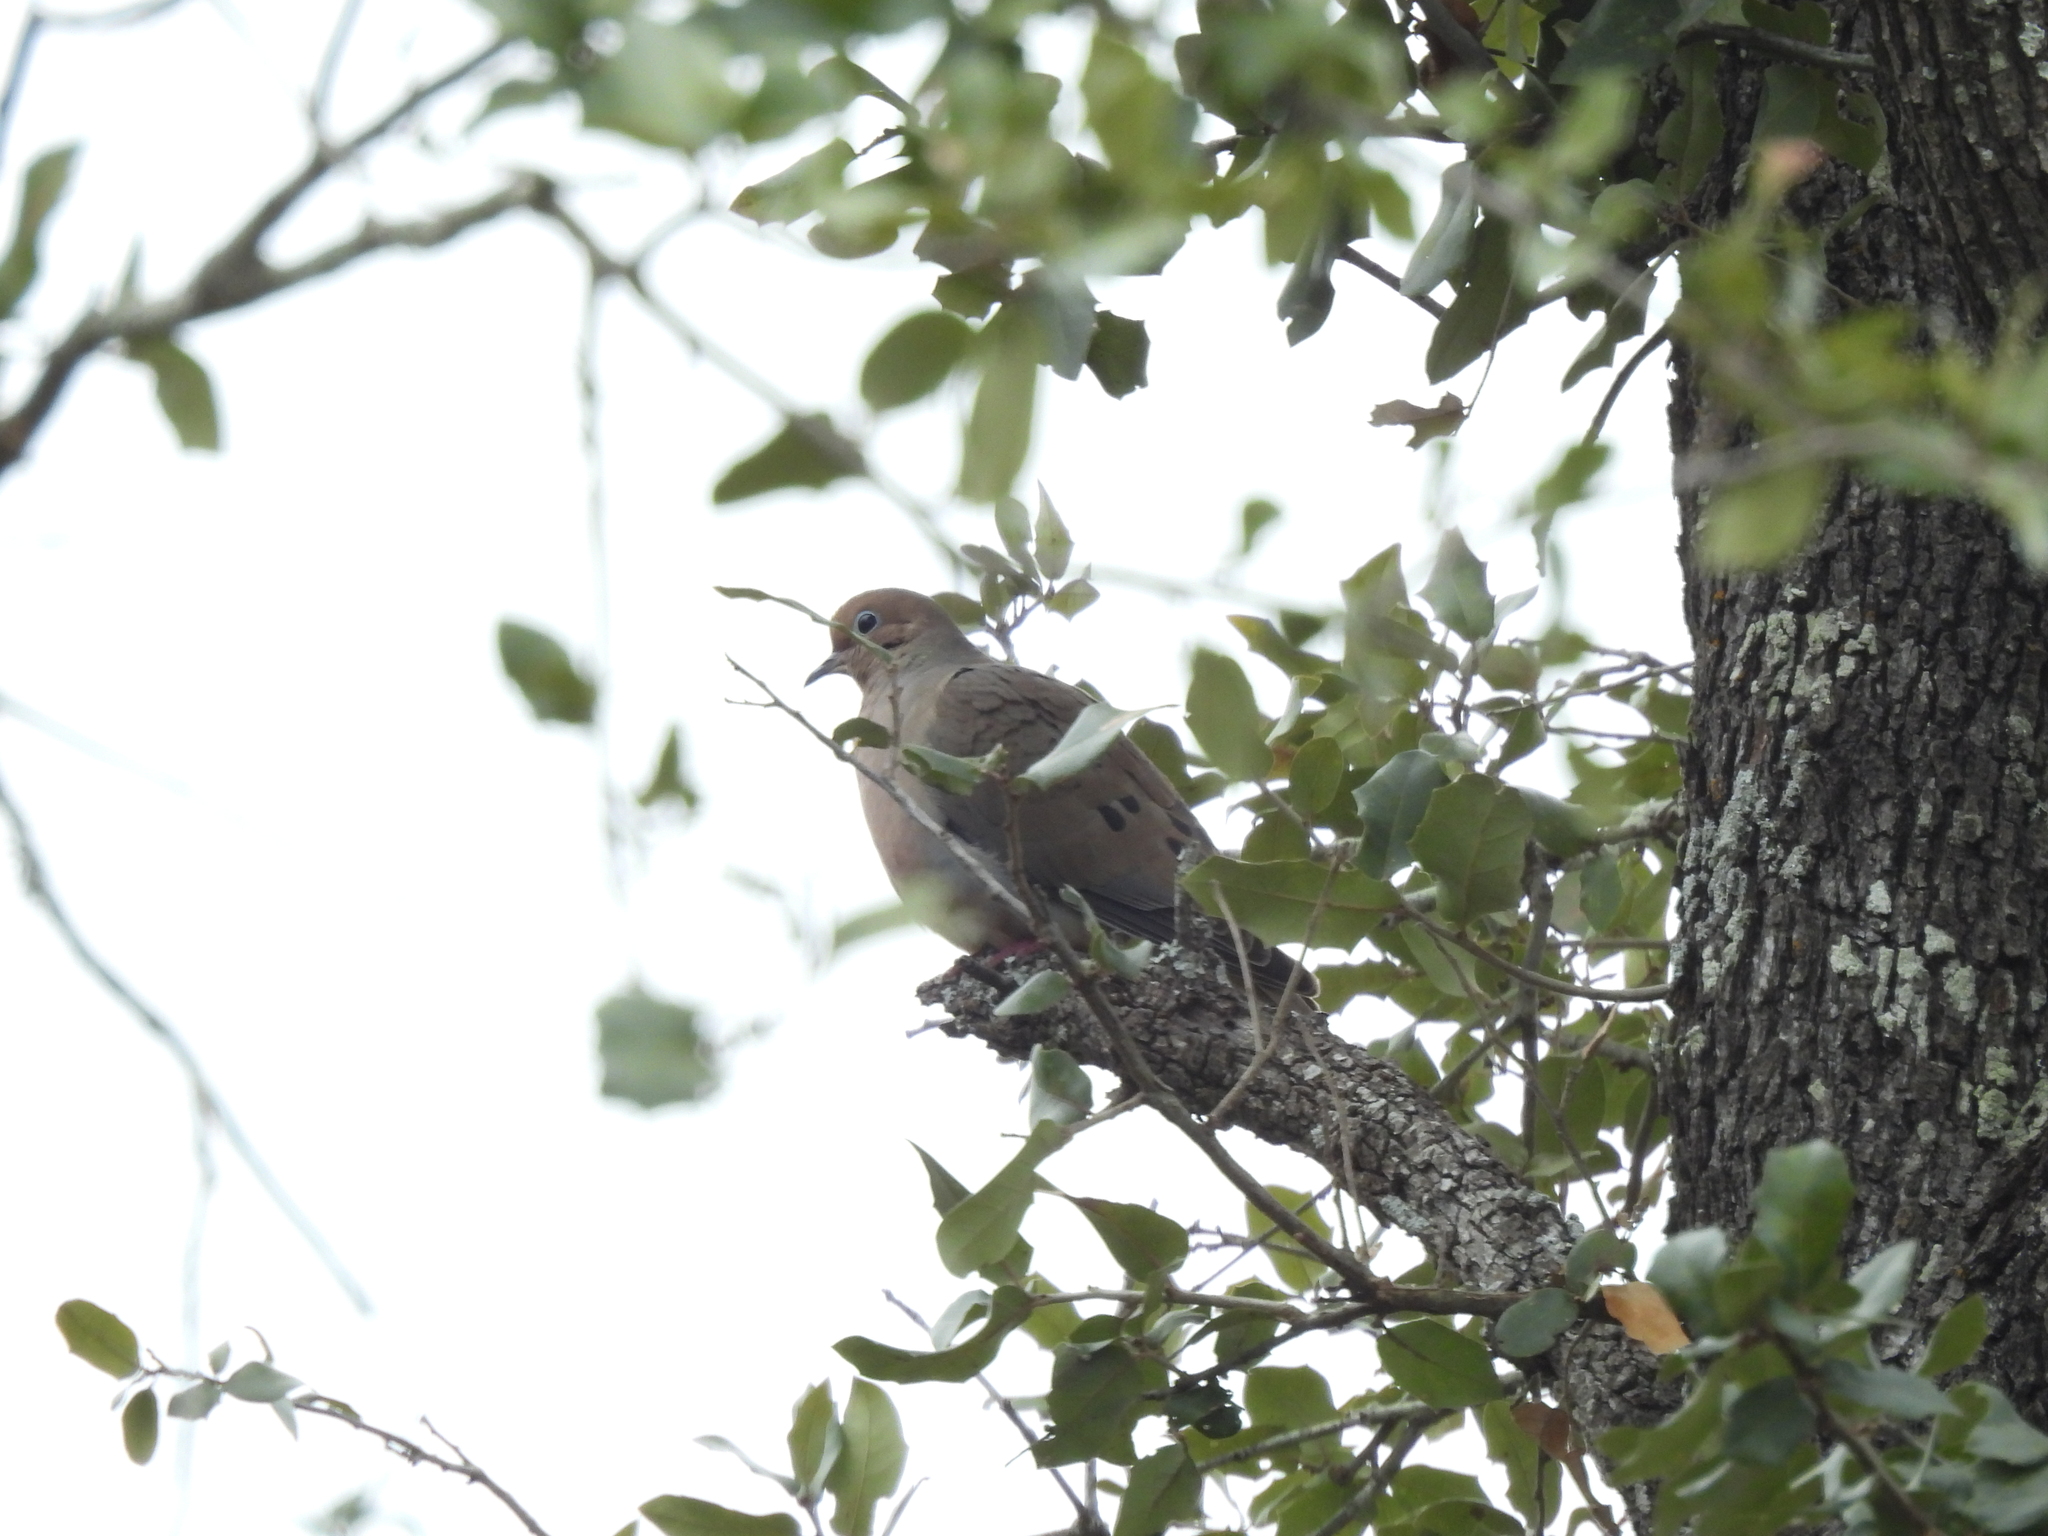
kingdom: Animalia
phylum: Chordata
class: Aves
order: Columbiformes
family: Columbidae
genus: Zenaida
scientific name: Zenaida macroura
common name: Mourning dove
